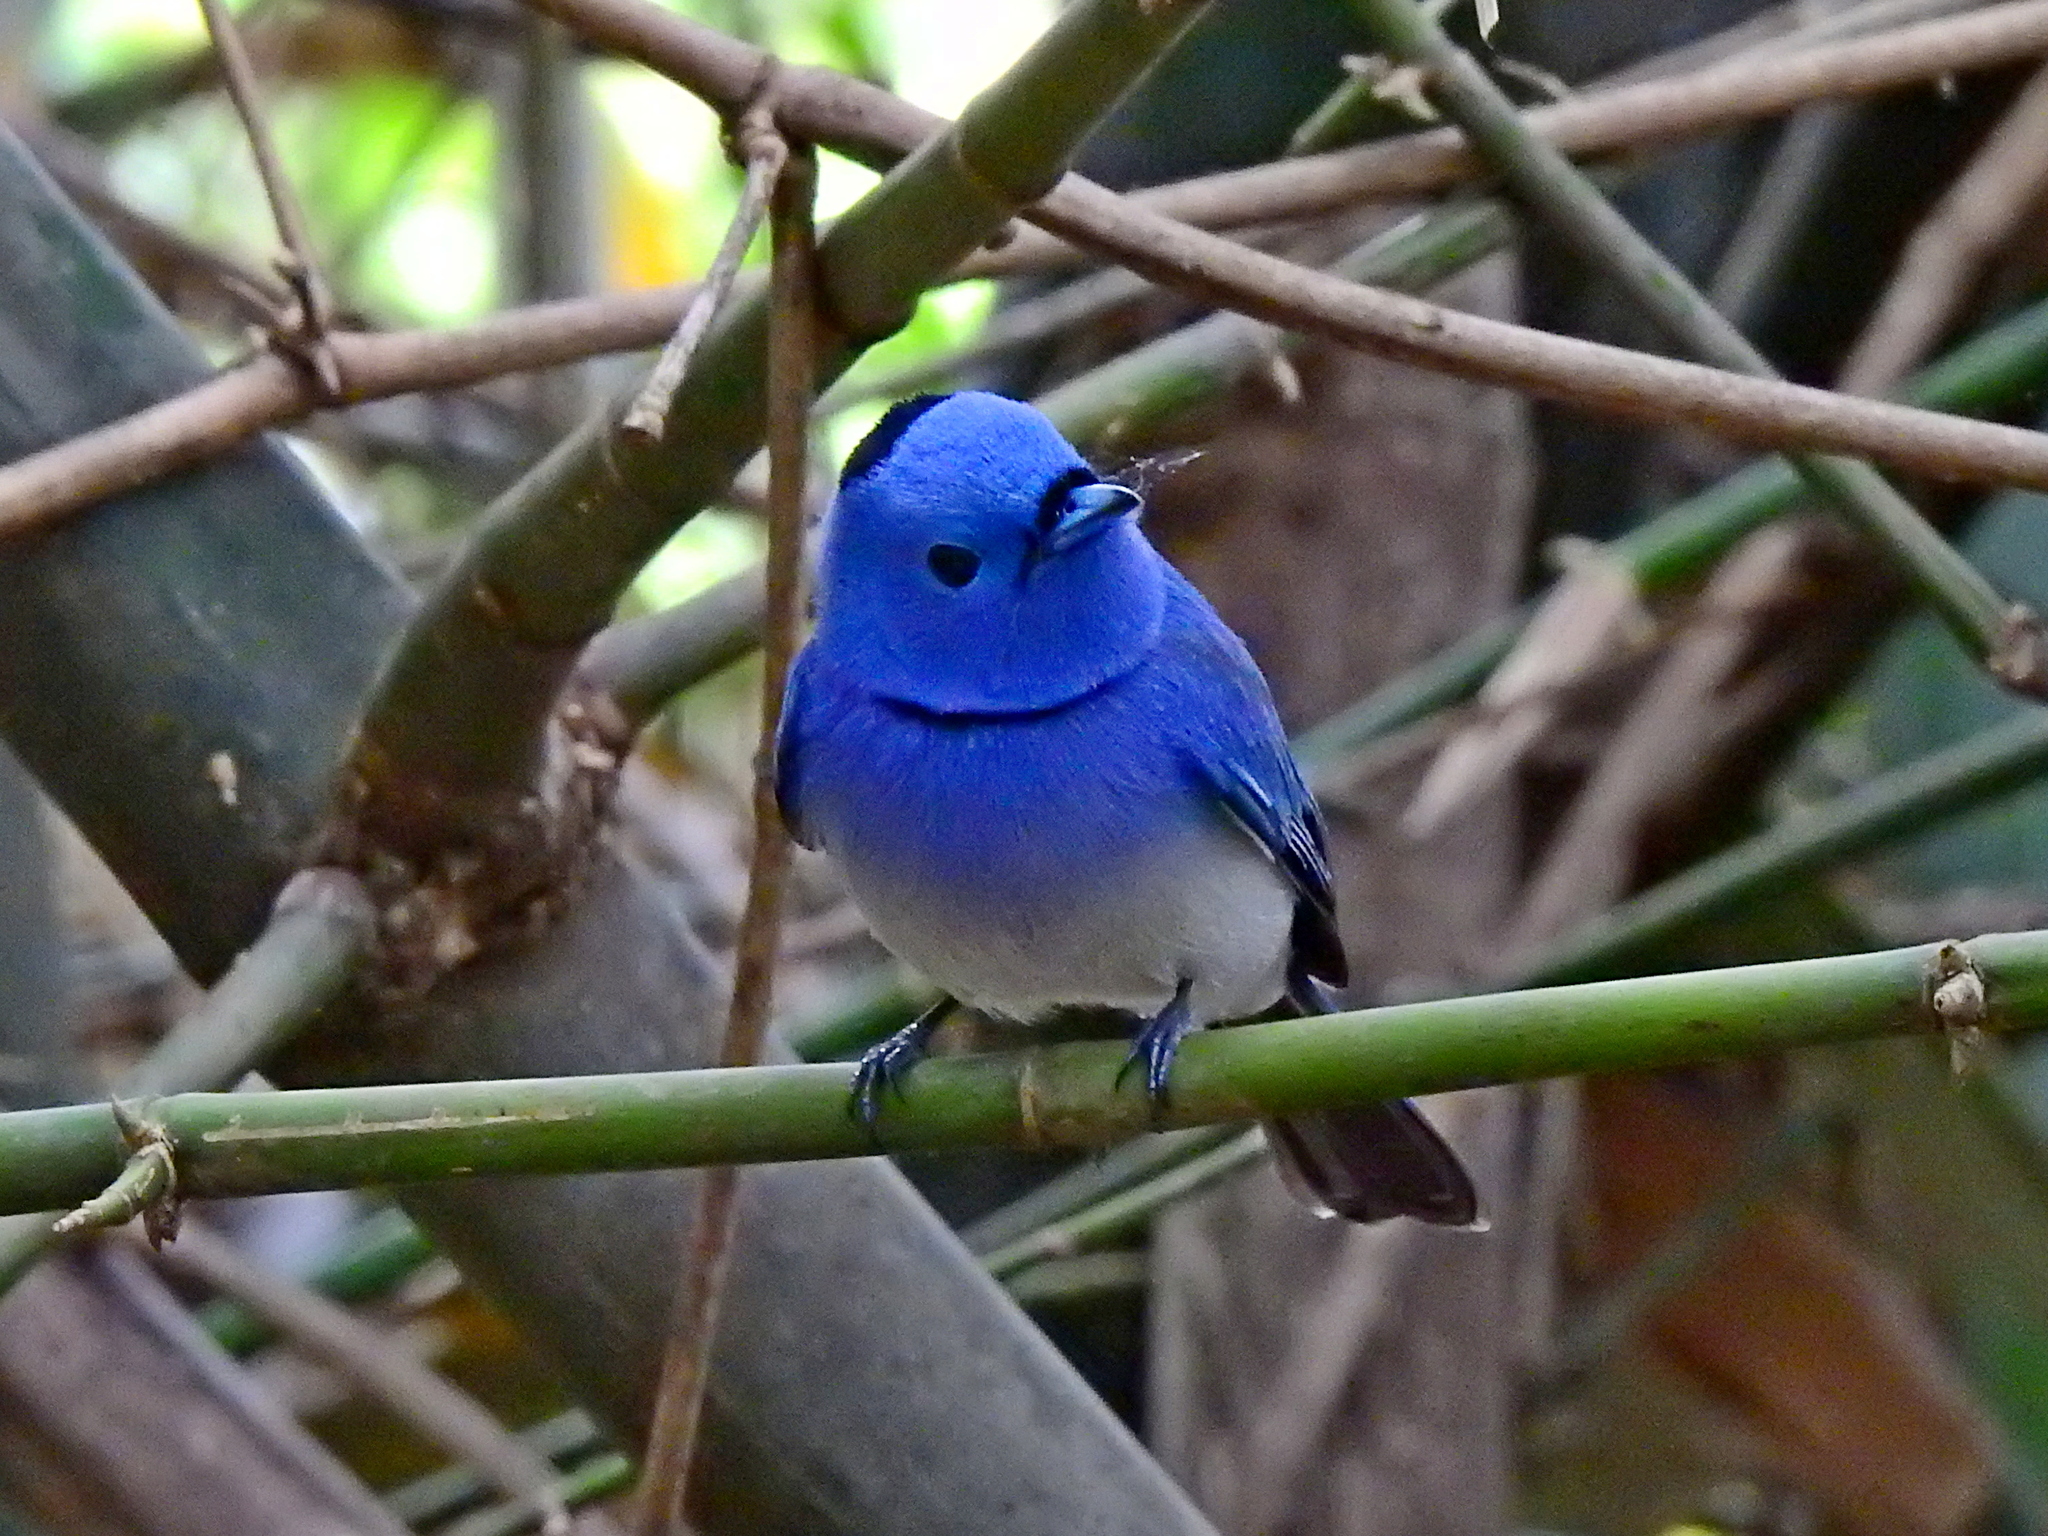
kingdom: Animalia
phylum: Chordata
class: Aves
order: Passeriformes
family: Monarchidae
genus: Hypothymis
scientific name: Hypothymis azurea
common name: Black-naped monarch
